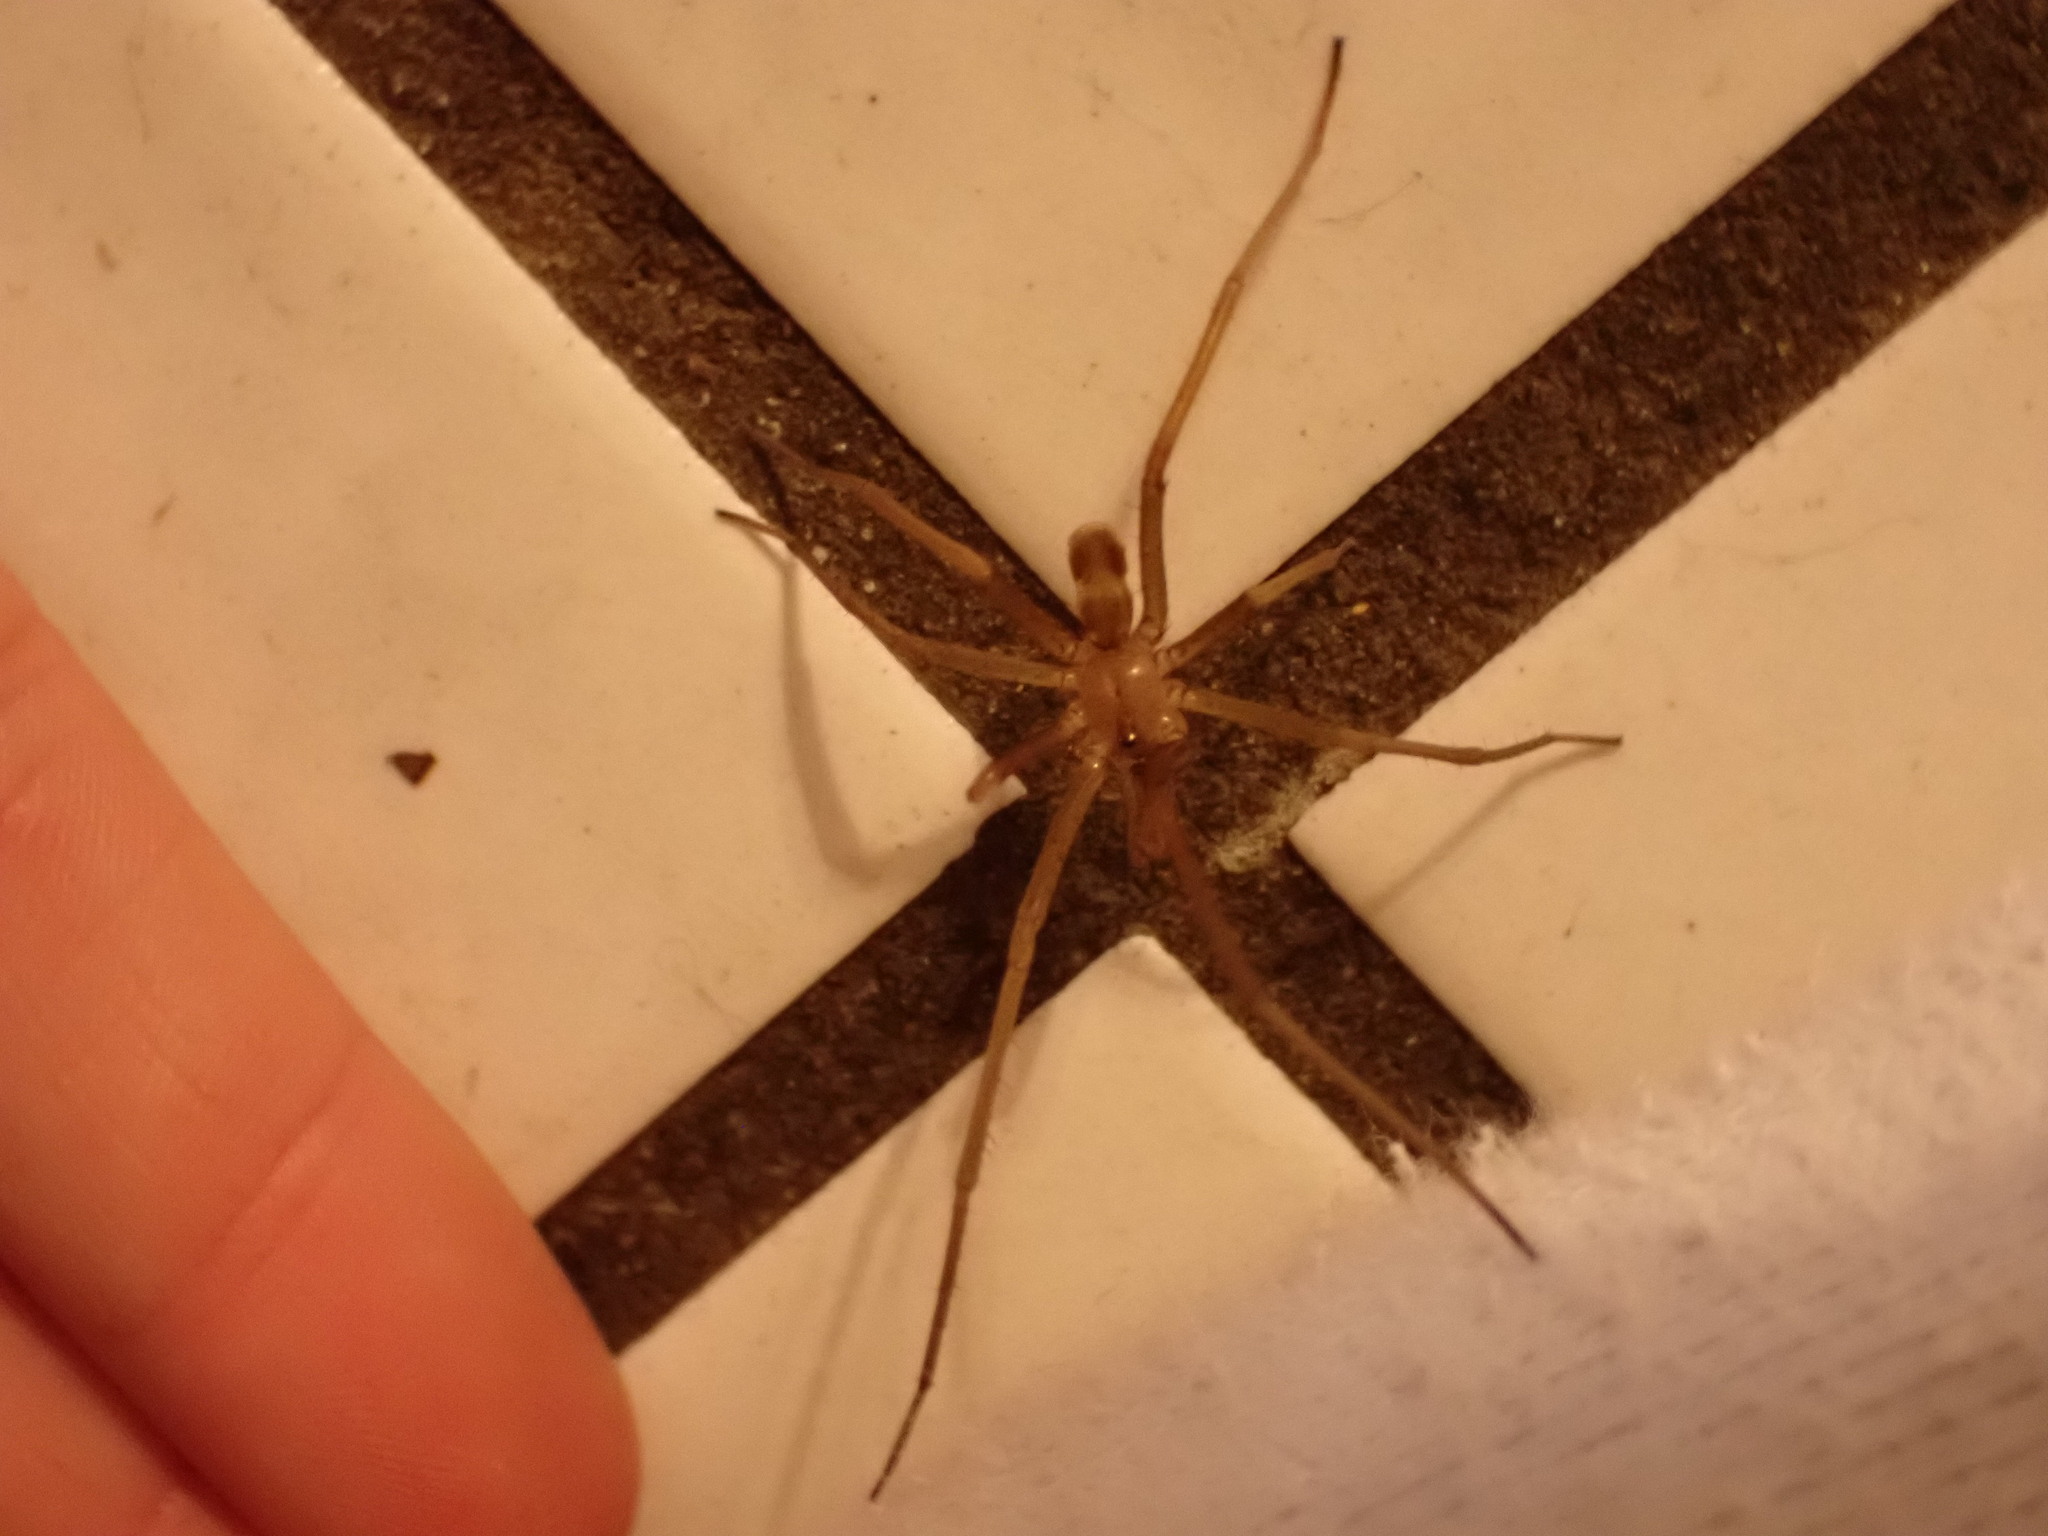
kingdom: Animalia
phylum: Arthropoda
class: Arachnida
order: Araneae
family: Filistatidae
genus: Kukulcania
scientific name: Kukulcania hibernalis
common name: Crevice weaver
